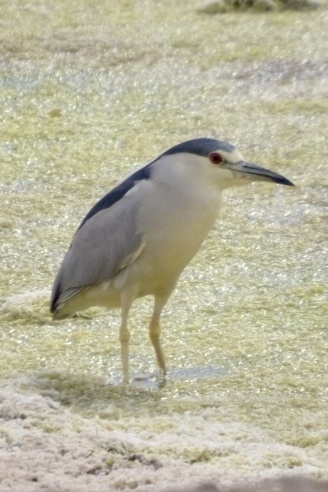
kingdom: Animalia
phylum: Chordata
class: Aves
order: Pelecaniformes
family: Ardeidae
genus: Nycticorax
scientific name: Nycticorax nycticorax
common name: Black-crowned night heron
